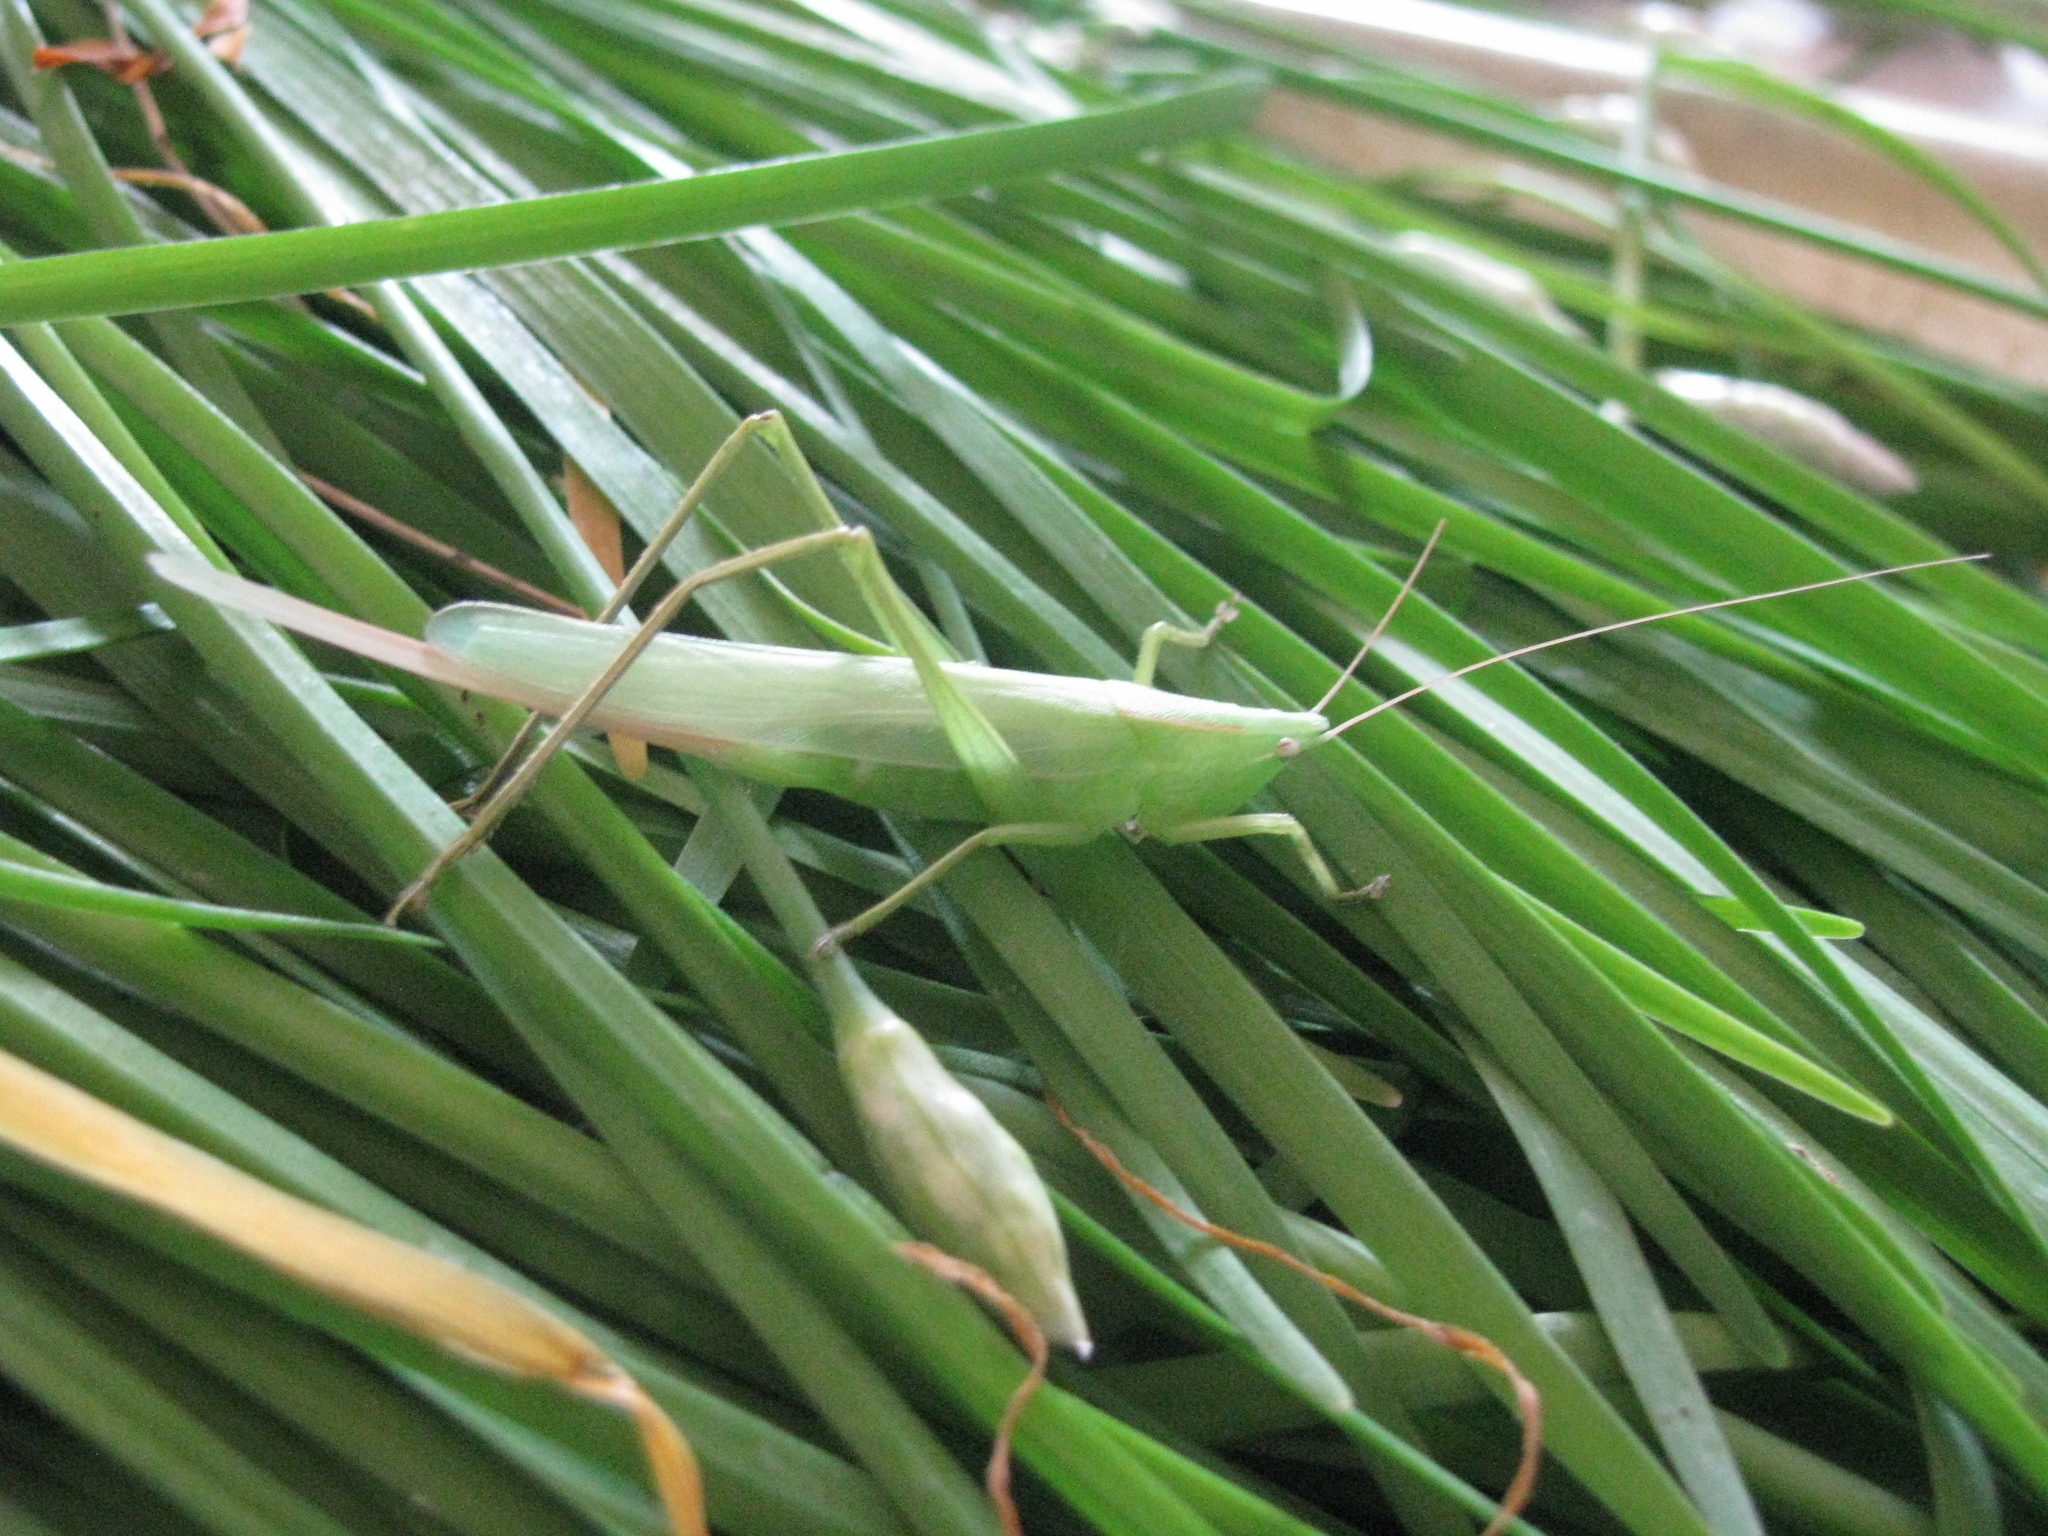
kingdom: Animalia
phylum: Arthropoda
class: Insecta
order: Orthoptera
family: Tettigoniidae
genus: Neoconocephalus
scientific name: Neoconocephalus retusus
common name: Round-tipped conehead
